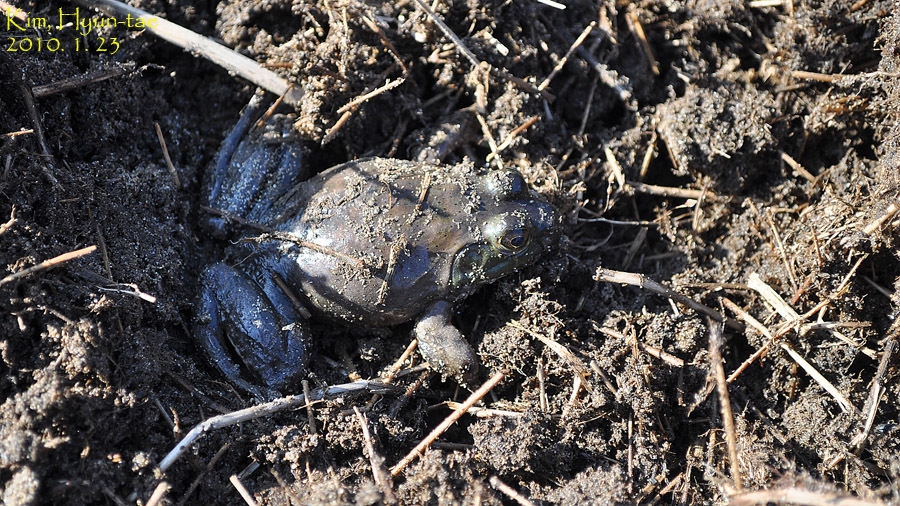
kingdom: Animalia
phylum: Chordata
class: Amphibia
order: Anura
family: Ranidae
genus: Lithobates
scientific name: Lithobates catesbeianus
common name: American bullfrog
